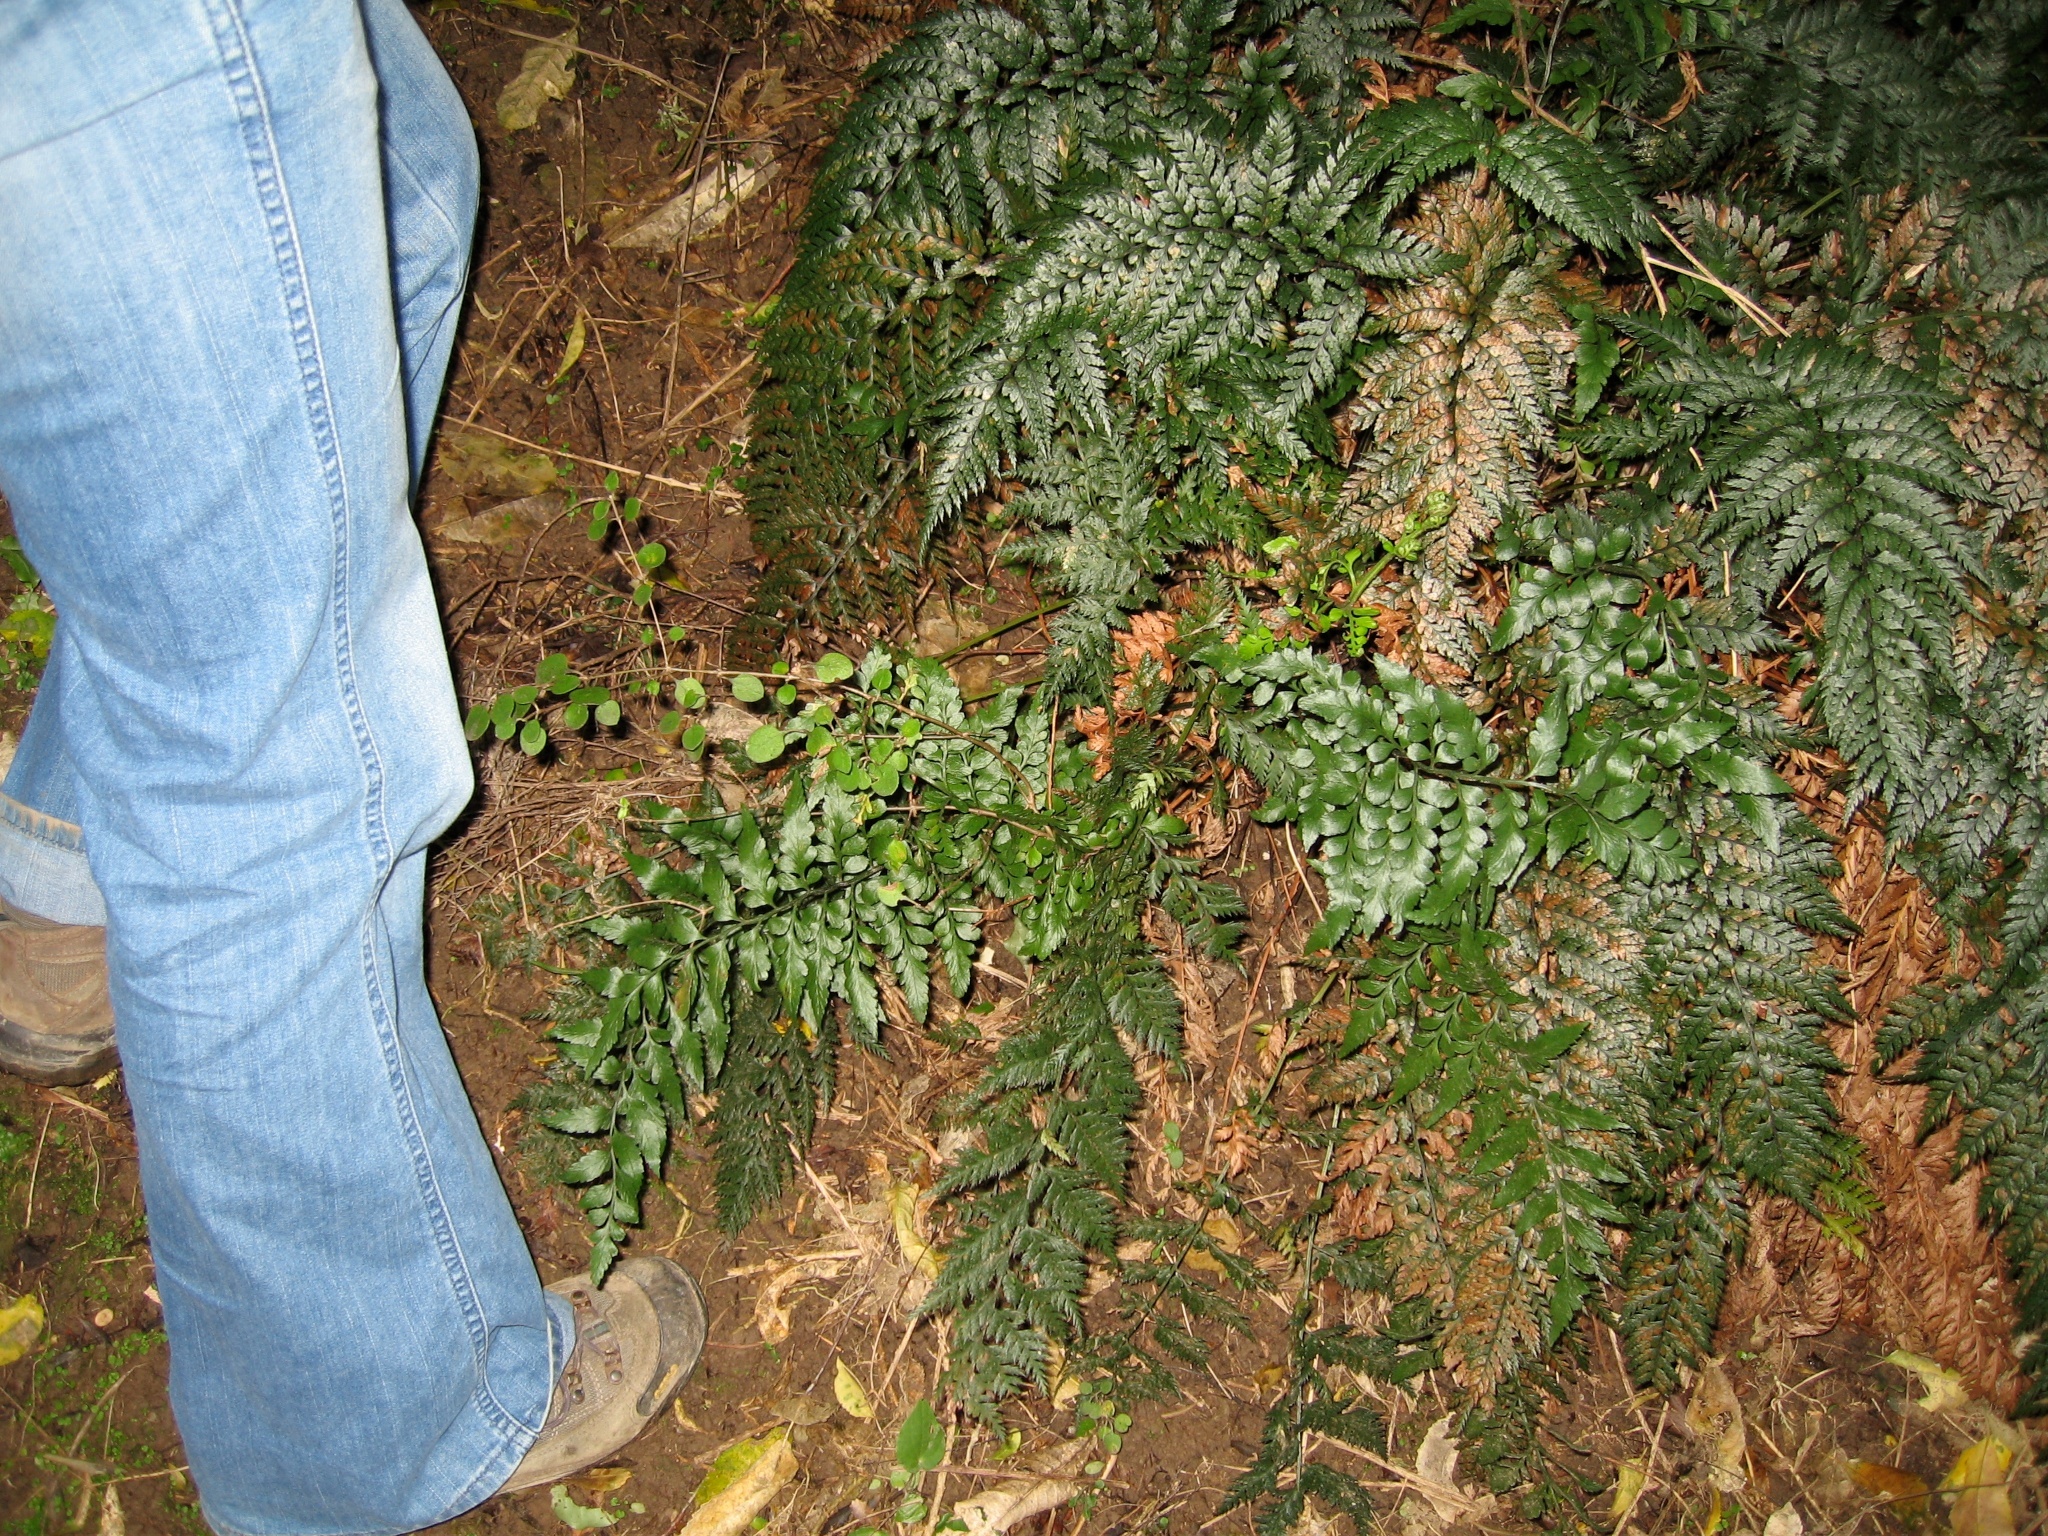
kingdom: Plantae
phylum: Tracheophyta
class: Polypodiopsida
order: Polypodiales
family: Aspleniaceae
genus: Asplenium
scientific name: Asplenium lyallii
